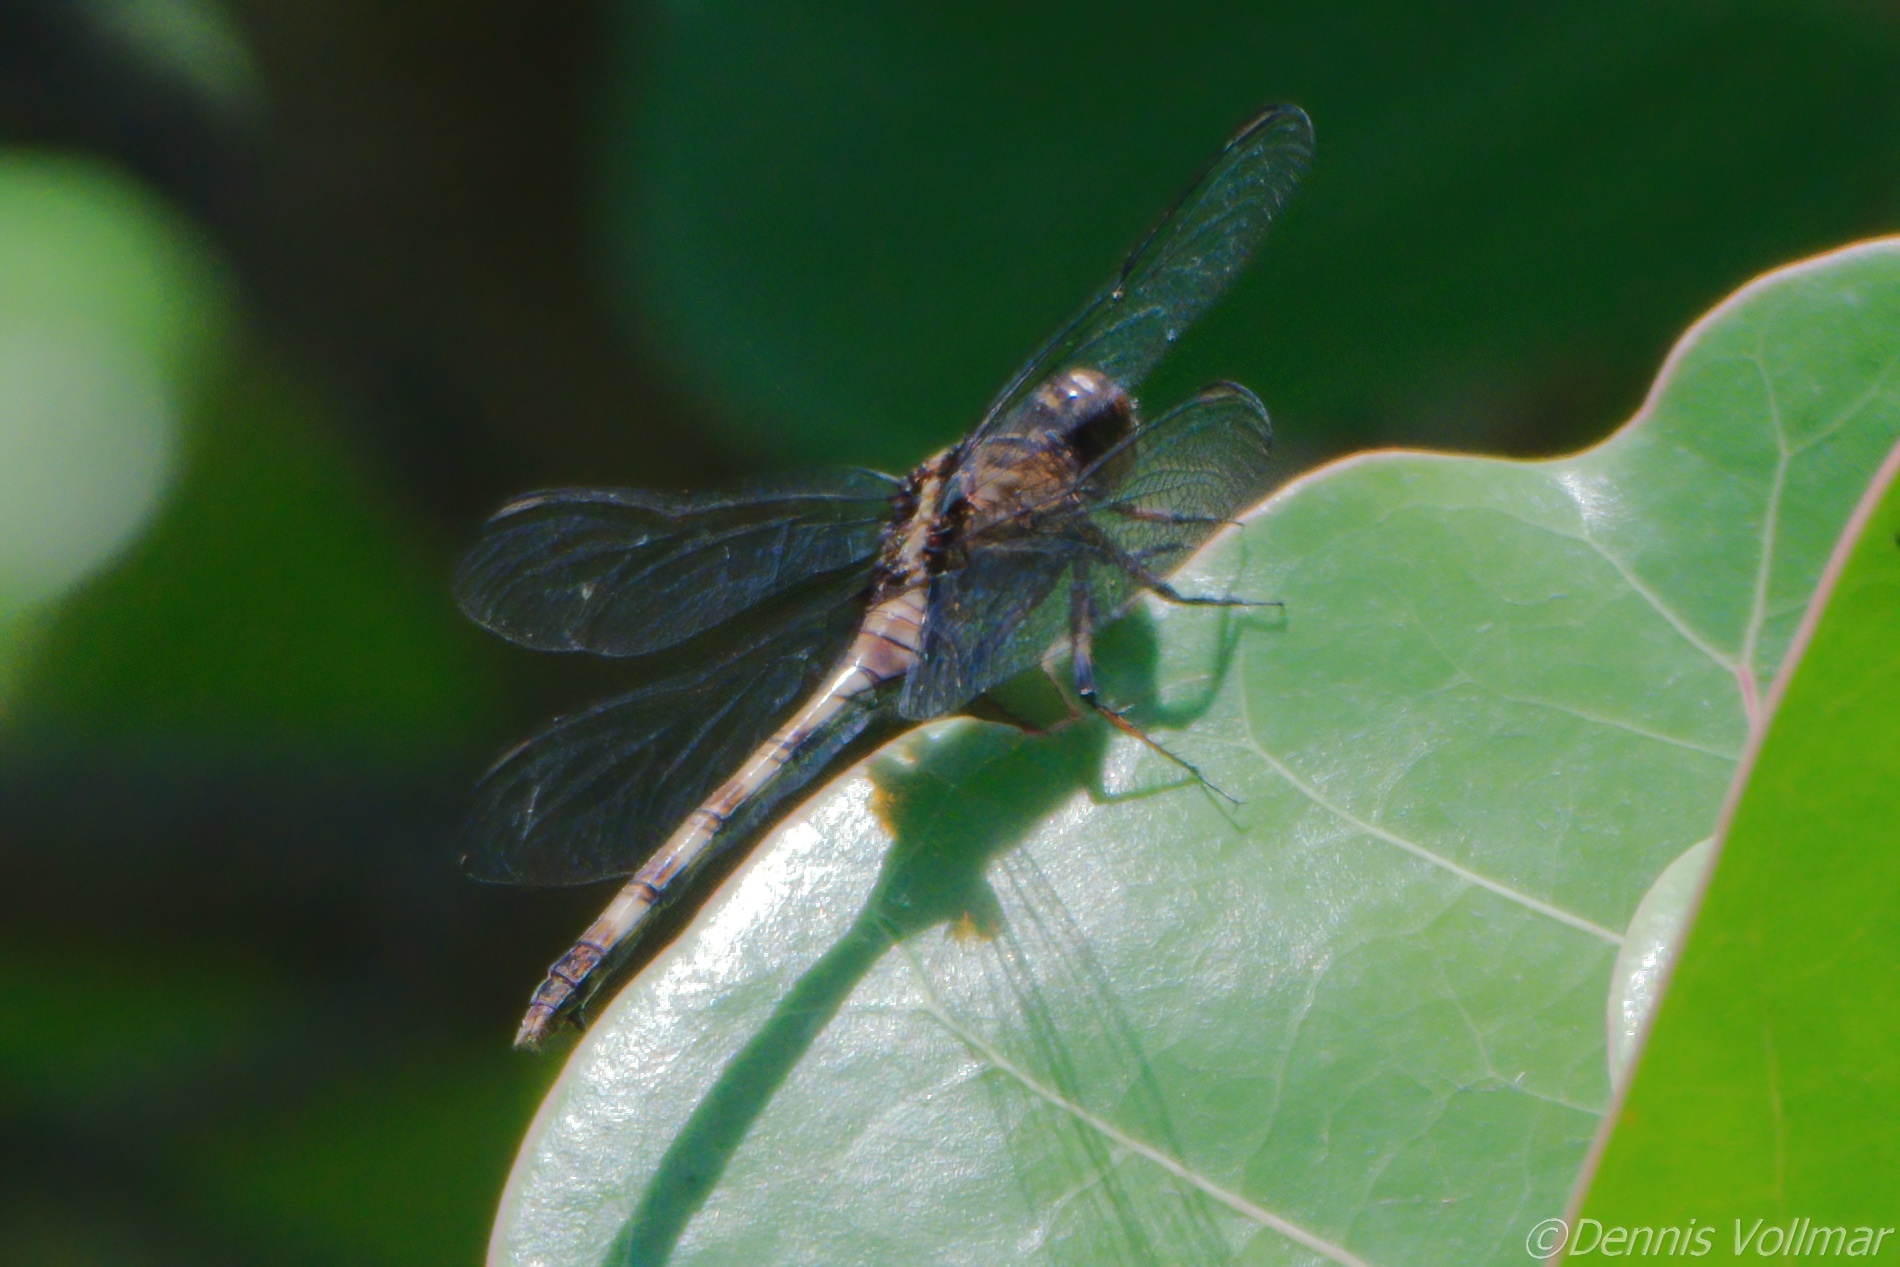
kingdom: Animalia
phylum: Arthropoda
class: Insecta
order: Odonata
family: Libellulidae
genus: Erythemis
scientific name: Erythemis plebeja
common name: Pin-tailed pondhawk
